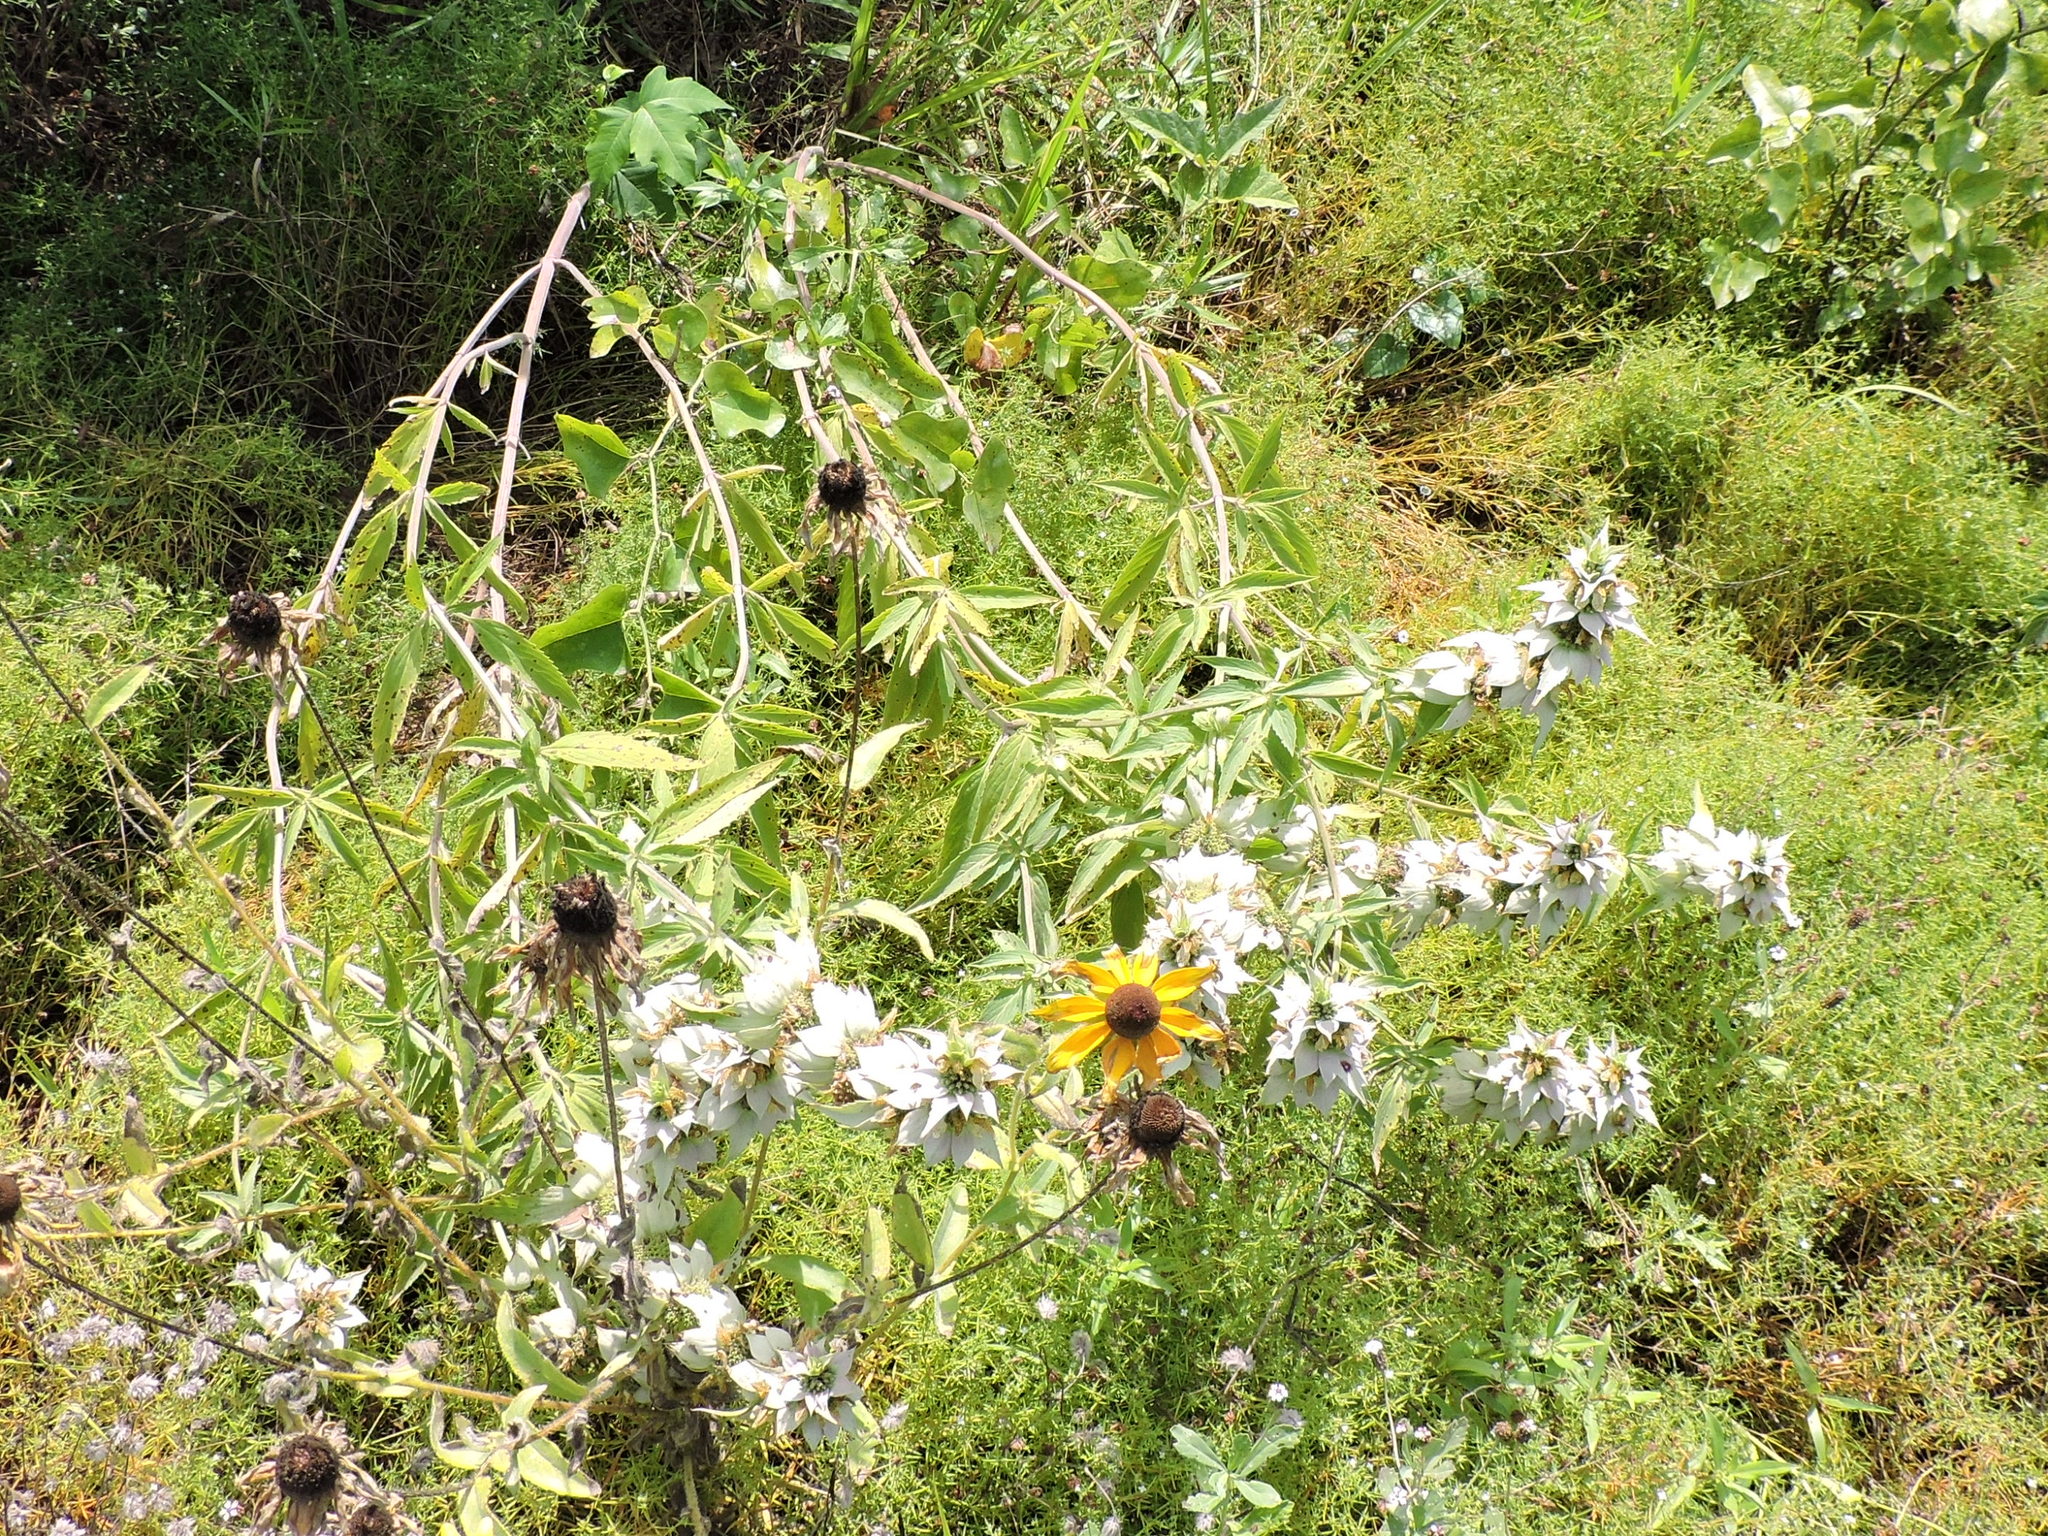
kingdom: Plantae
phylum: Tracheophyta
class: Magnoliopsida
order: Lamiales
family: Lamiaceae
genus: Monarda
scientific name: Monarda punctata
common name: Dotted monarda
